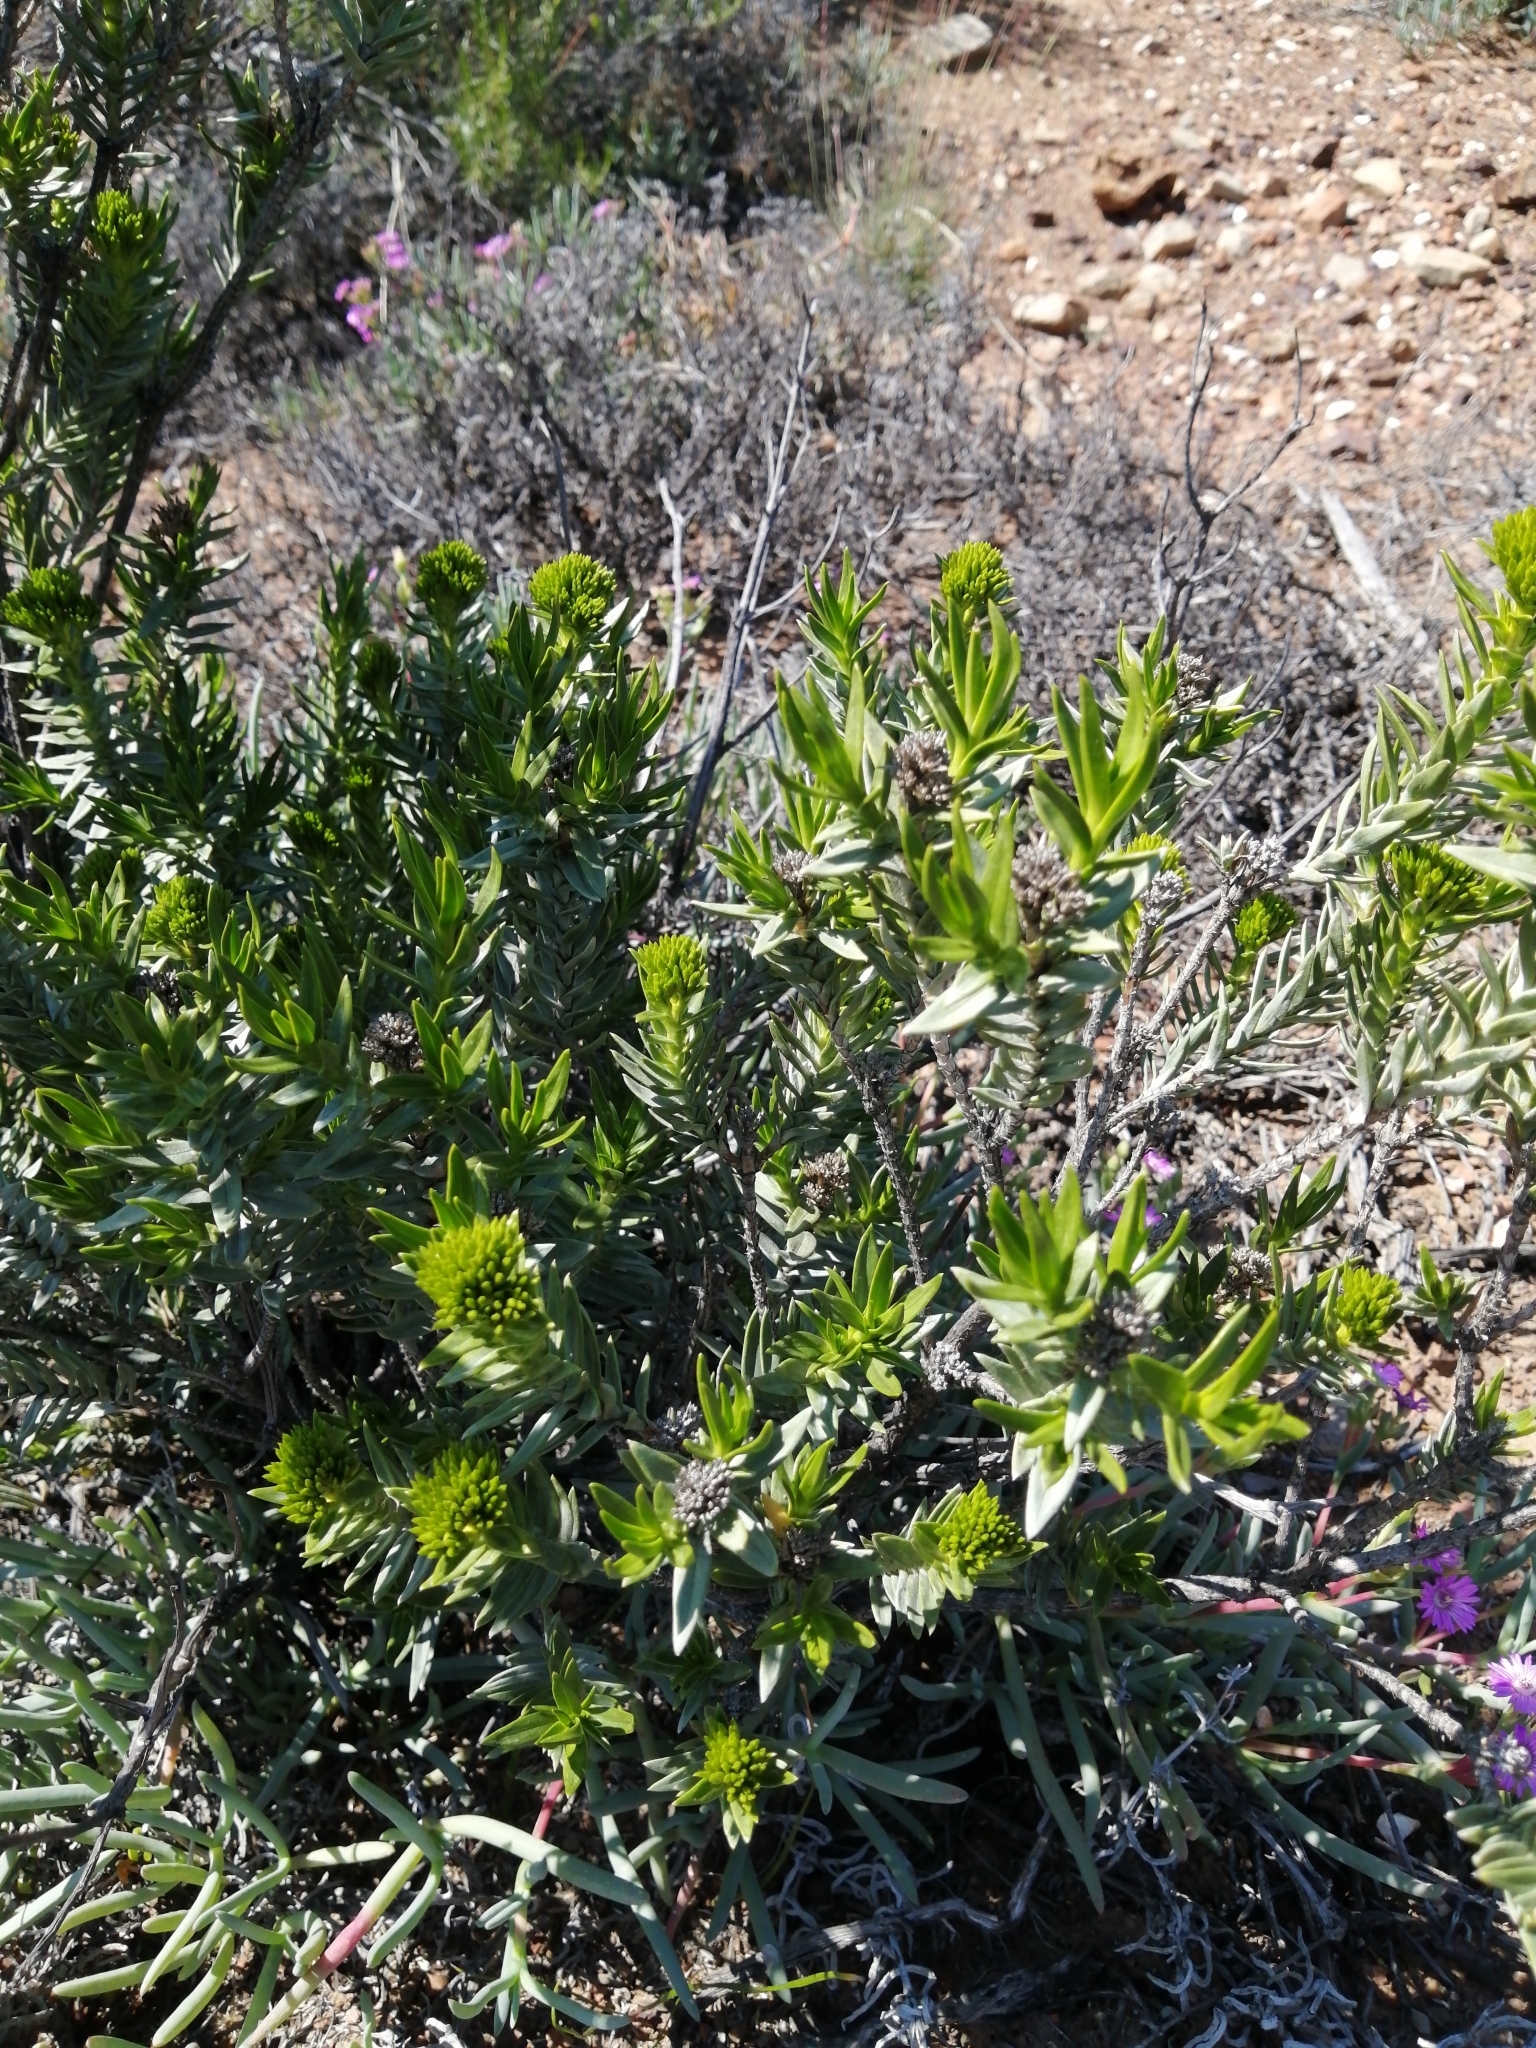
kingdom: Plantae
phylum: Tracheophyta
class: Magnoliopsida
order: Asterales
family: Asteraceae
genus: Pteronia
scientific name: Pteronia fasciculata
